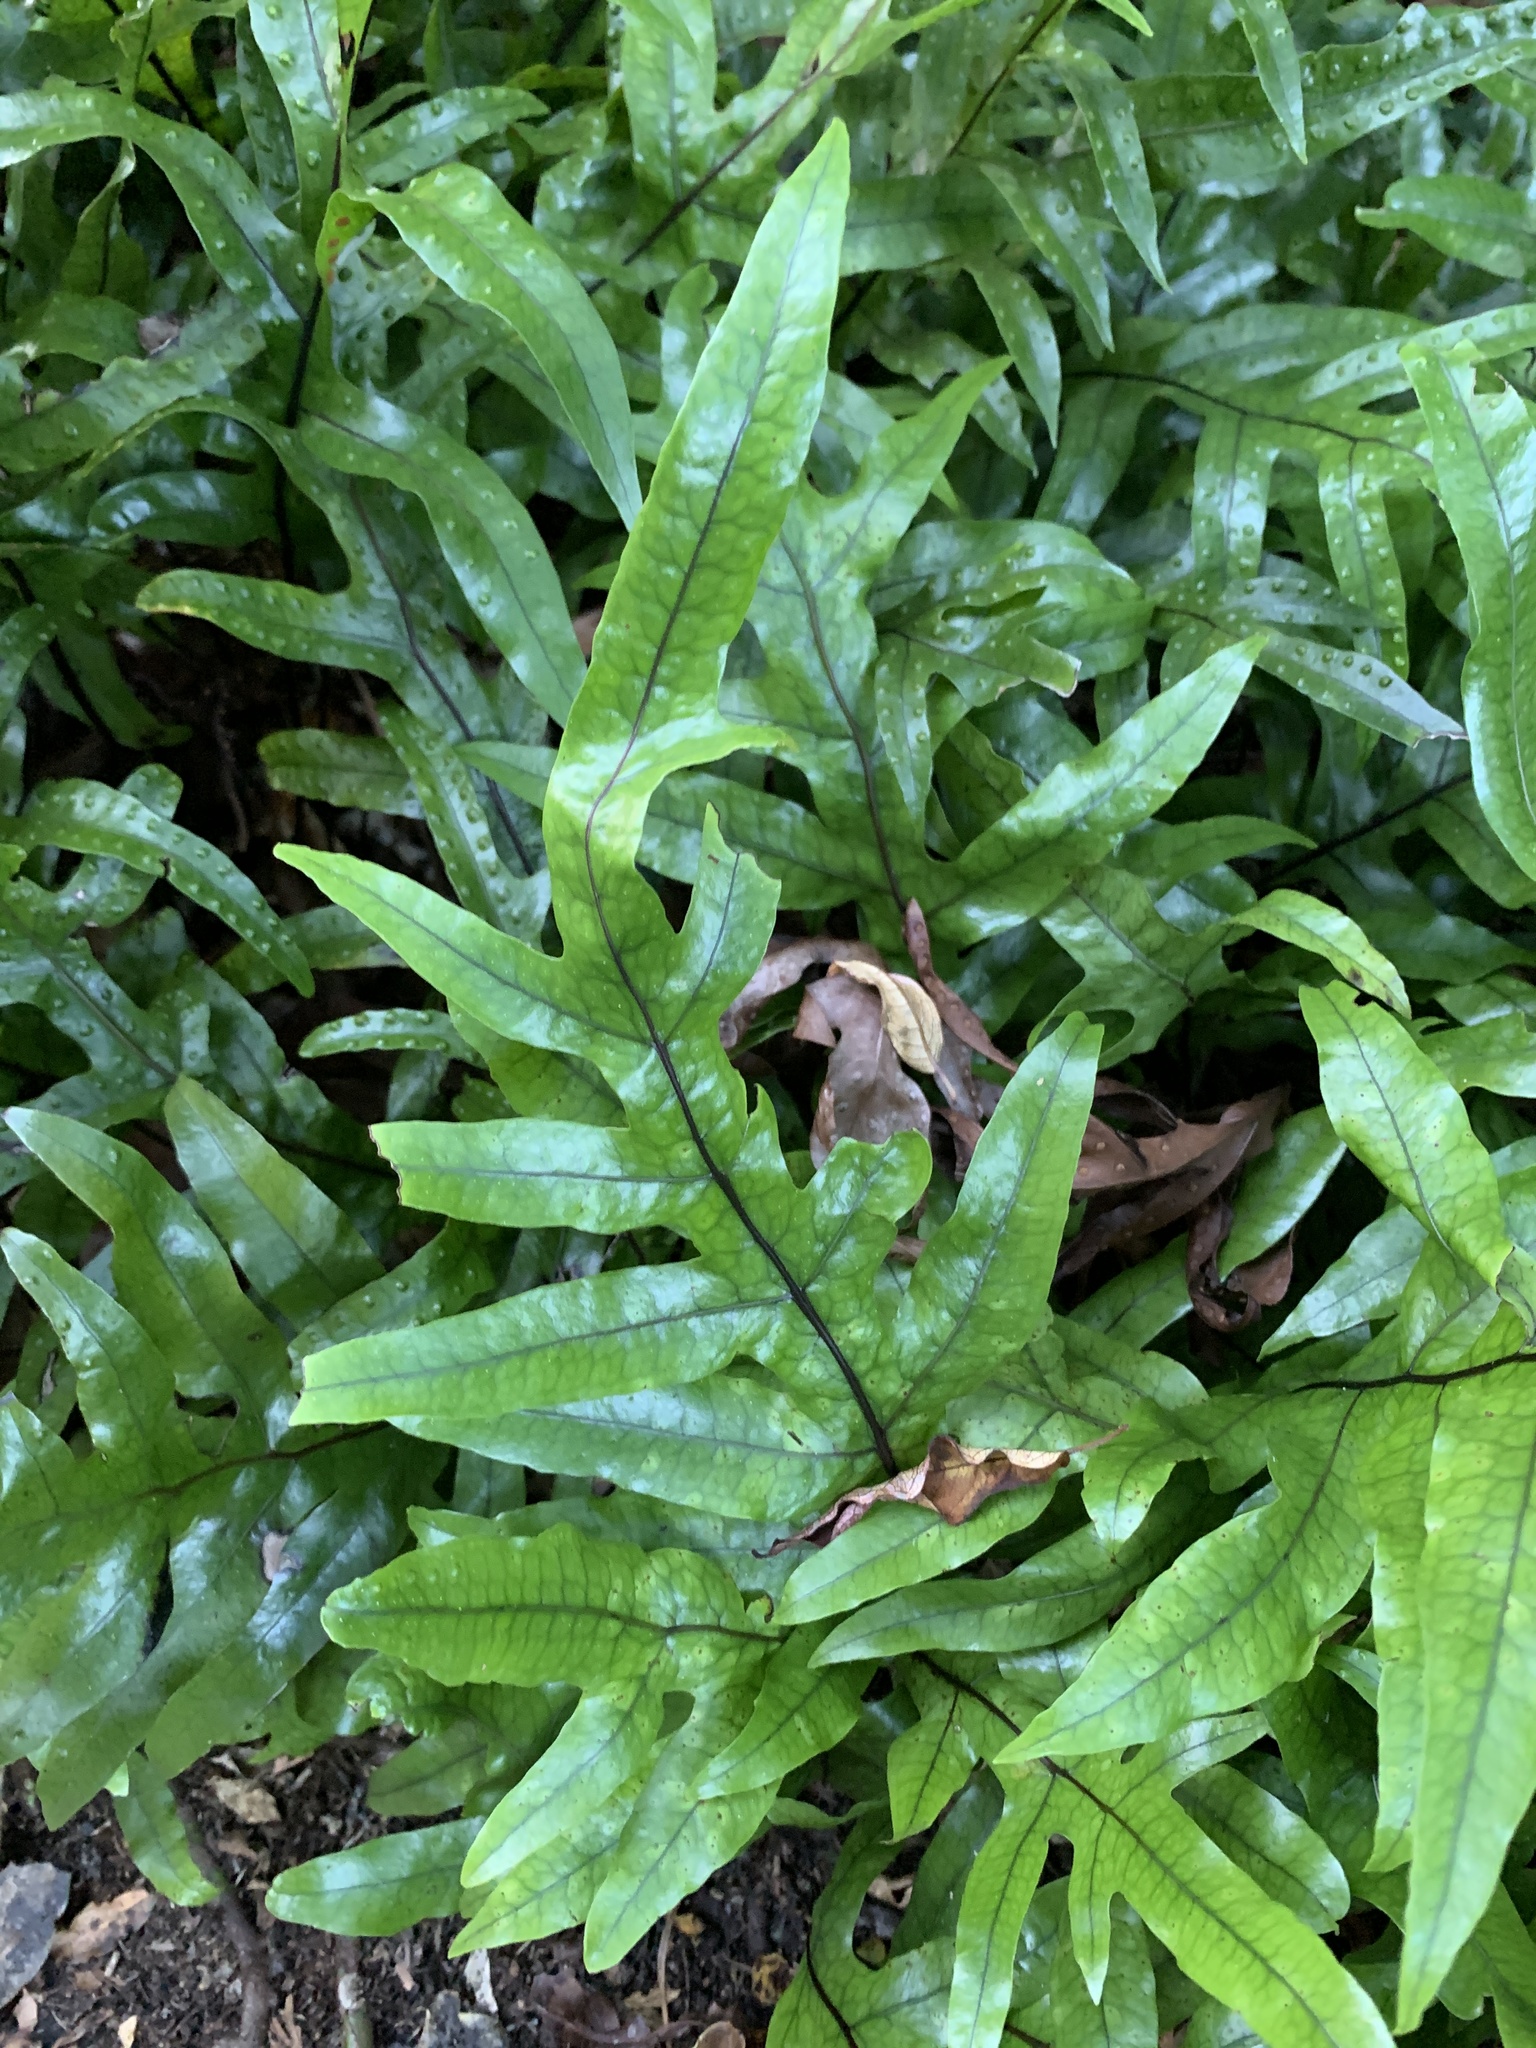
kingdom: Plantae
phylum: Tracheophyta
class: Polypodiopsida
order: Polypodiales
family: Polypodiaceae
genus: Lecanopteris
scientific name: Lecanopteris pustulata
